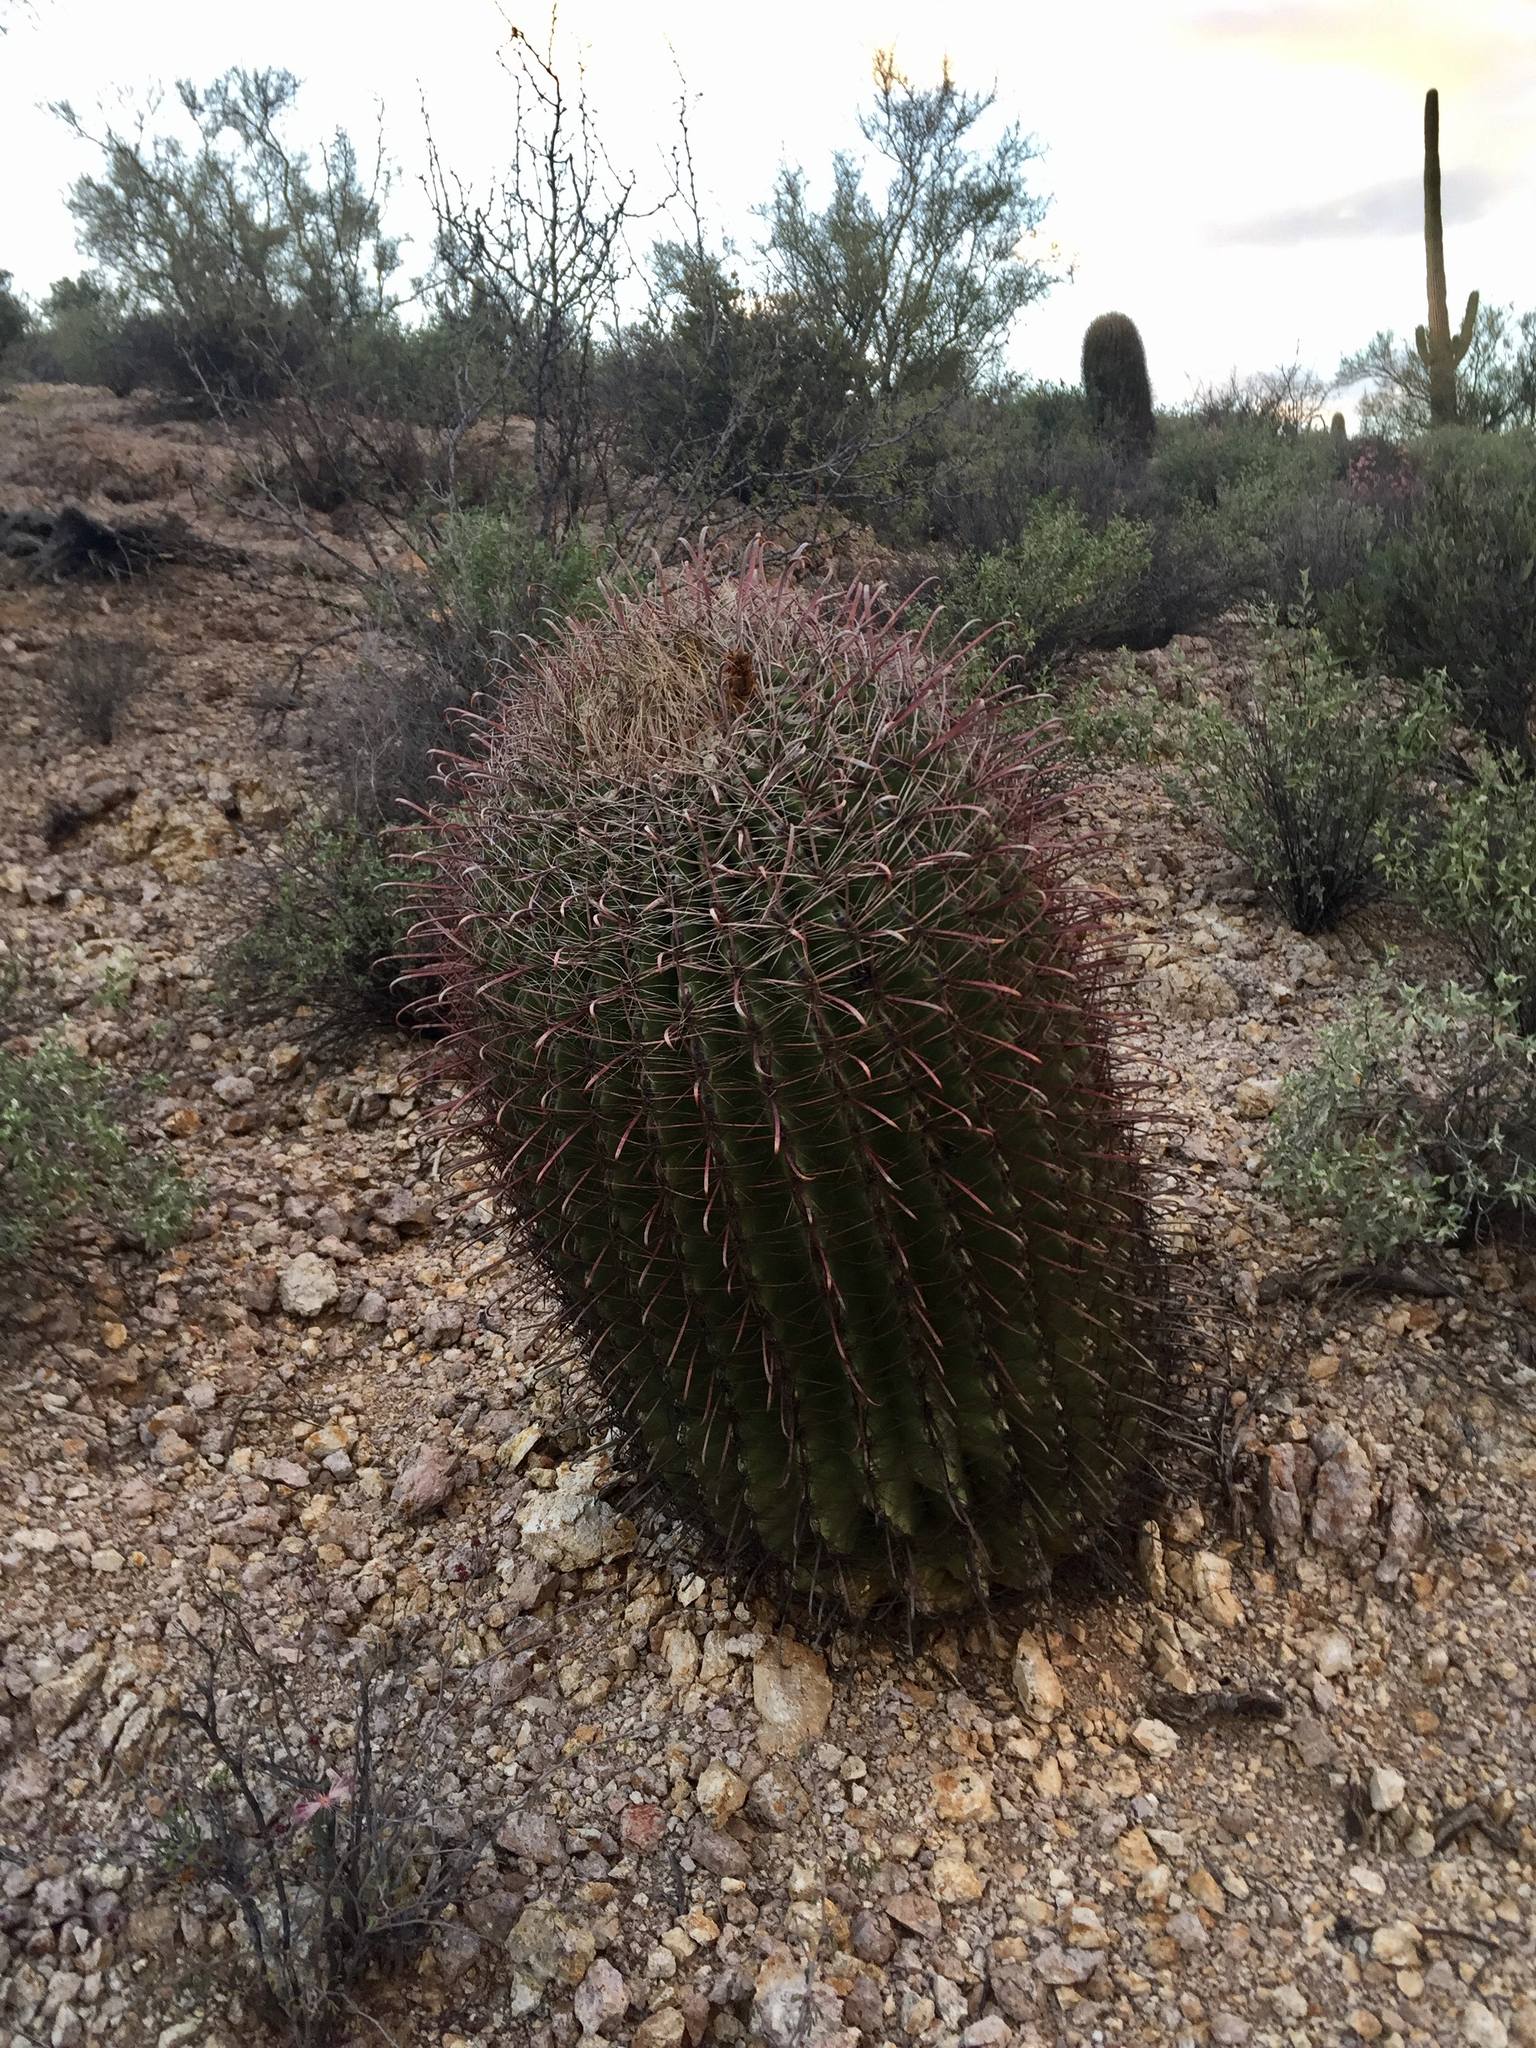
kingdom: Plantae
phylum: Tracheophyta
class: Magnoliopsida
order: Caryophyllales
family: Cactaceae
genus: Ferocactus
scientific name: Ferocactus wislizeni
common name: Candy barrel cactus
